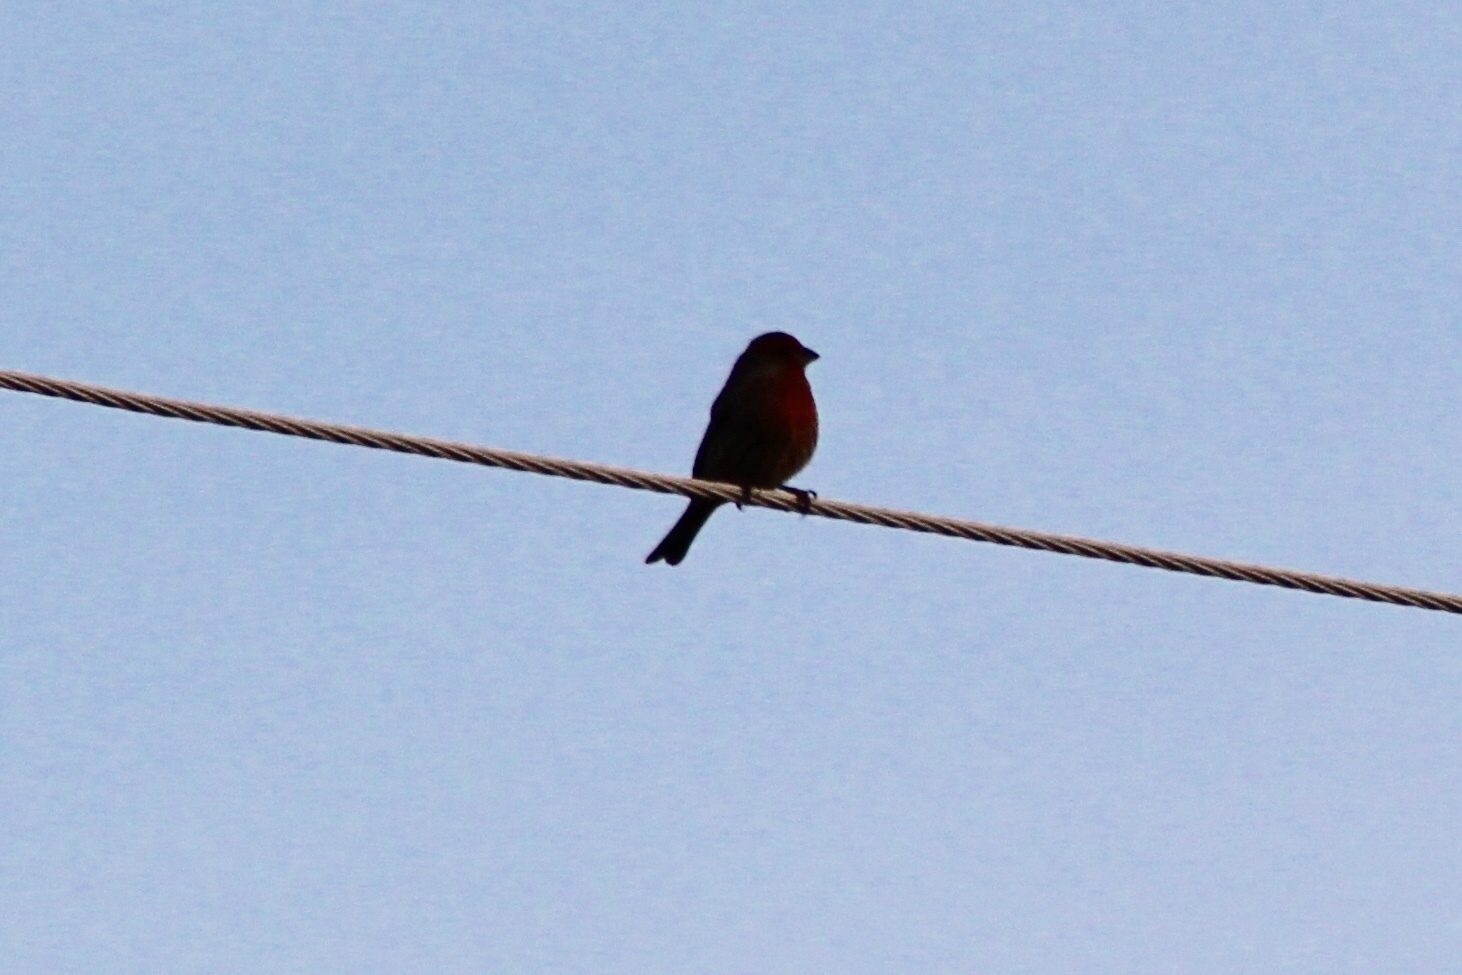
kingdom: Animalia
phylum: Chordata
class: Aves
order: Passeriformes
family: Fringillidae
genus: Haemorhous
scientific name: Haemorhous mexicanus
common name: House finch
